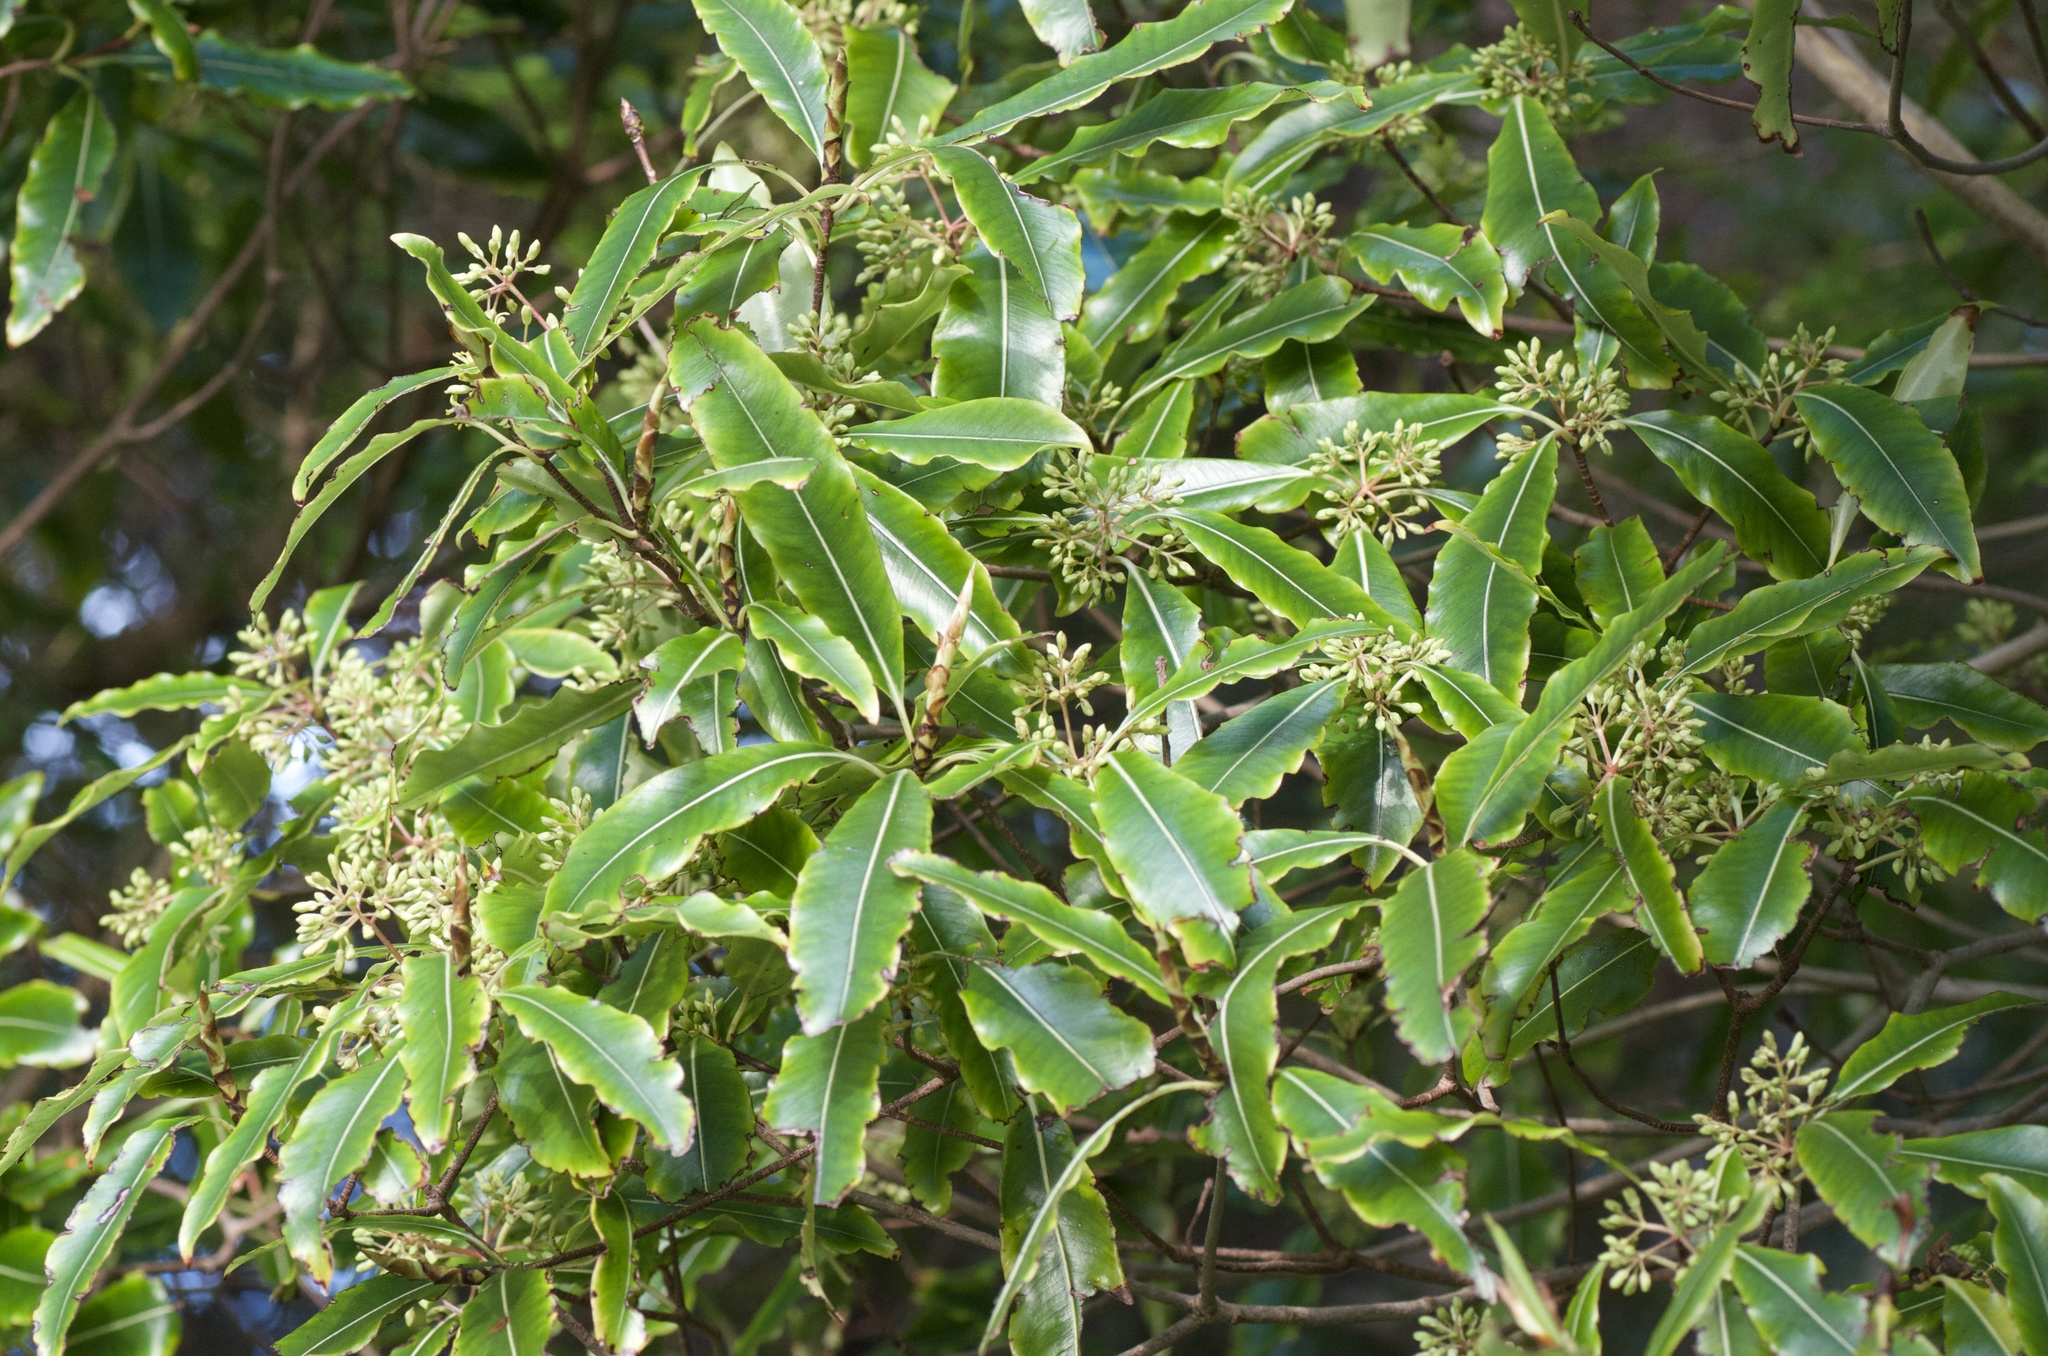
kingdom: Plantae
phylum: Tracheophyta
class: Magnoliopsida
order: Apiales
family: Pittosporaceae
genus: Pittosporum
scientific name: Pittosporum eugenioides
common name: Lemonwood
